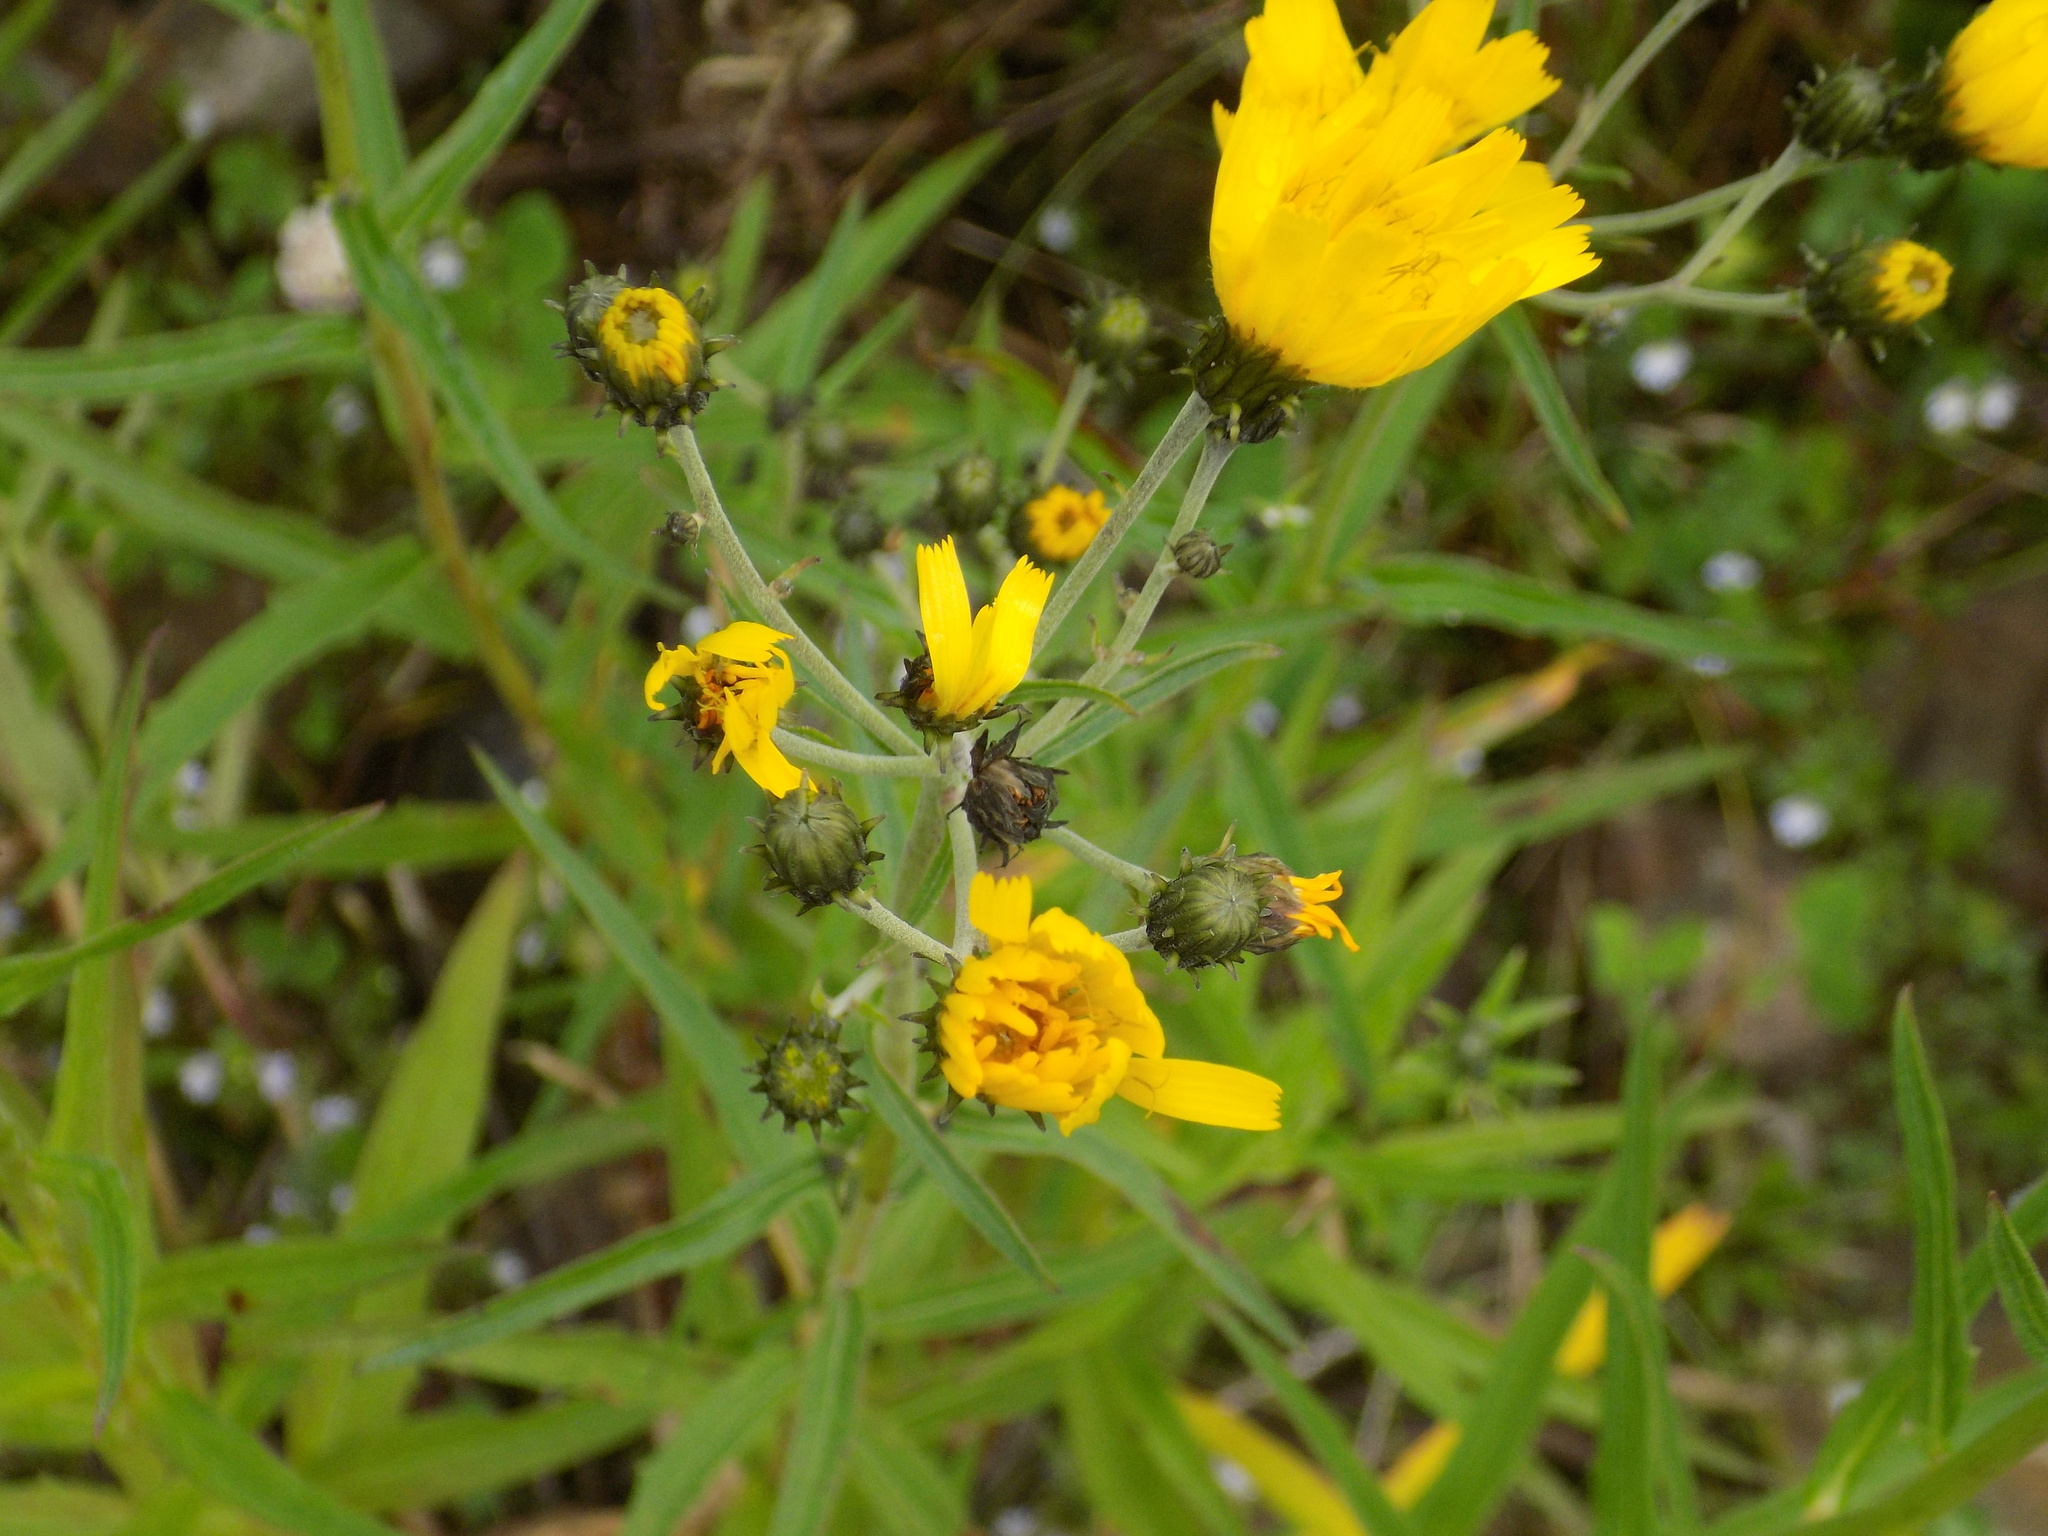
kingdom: Plantae
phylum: Tracheophyta
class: Magnoliopsida
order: Asterales
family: Asteraceae
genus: Hieracium
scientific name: Hieracium umbellatum
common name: Northern hawkweed
